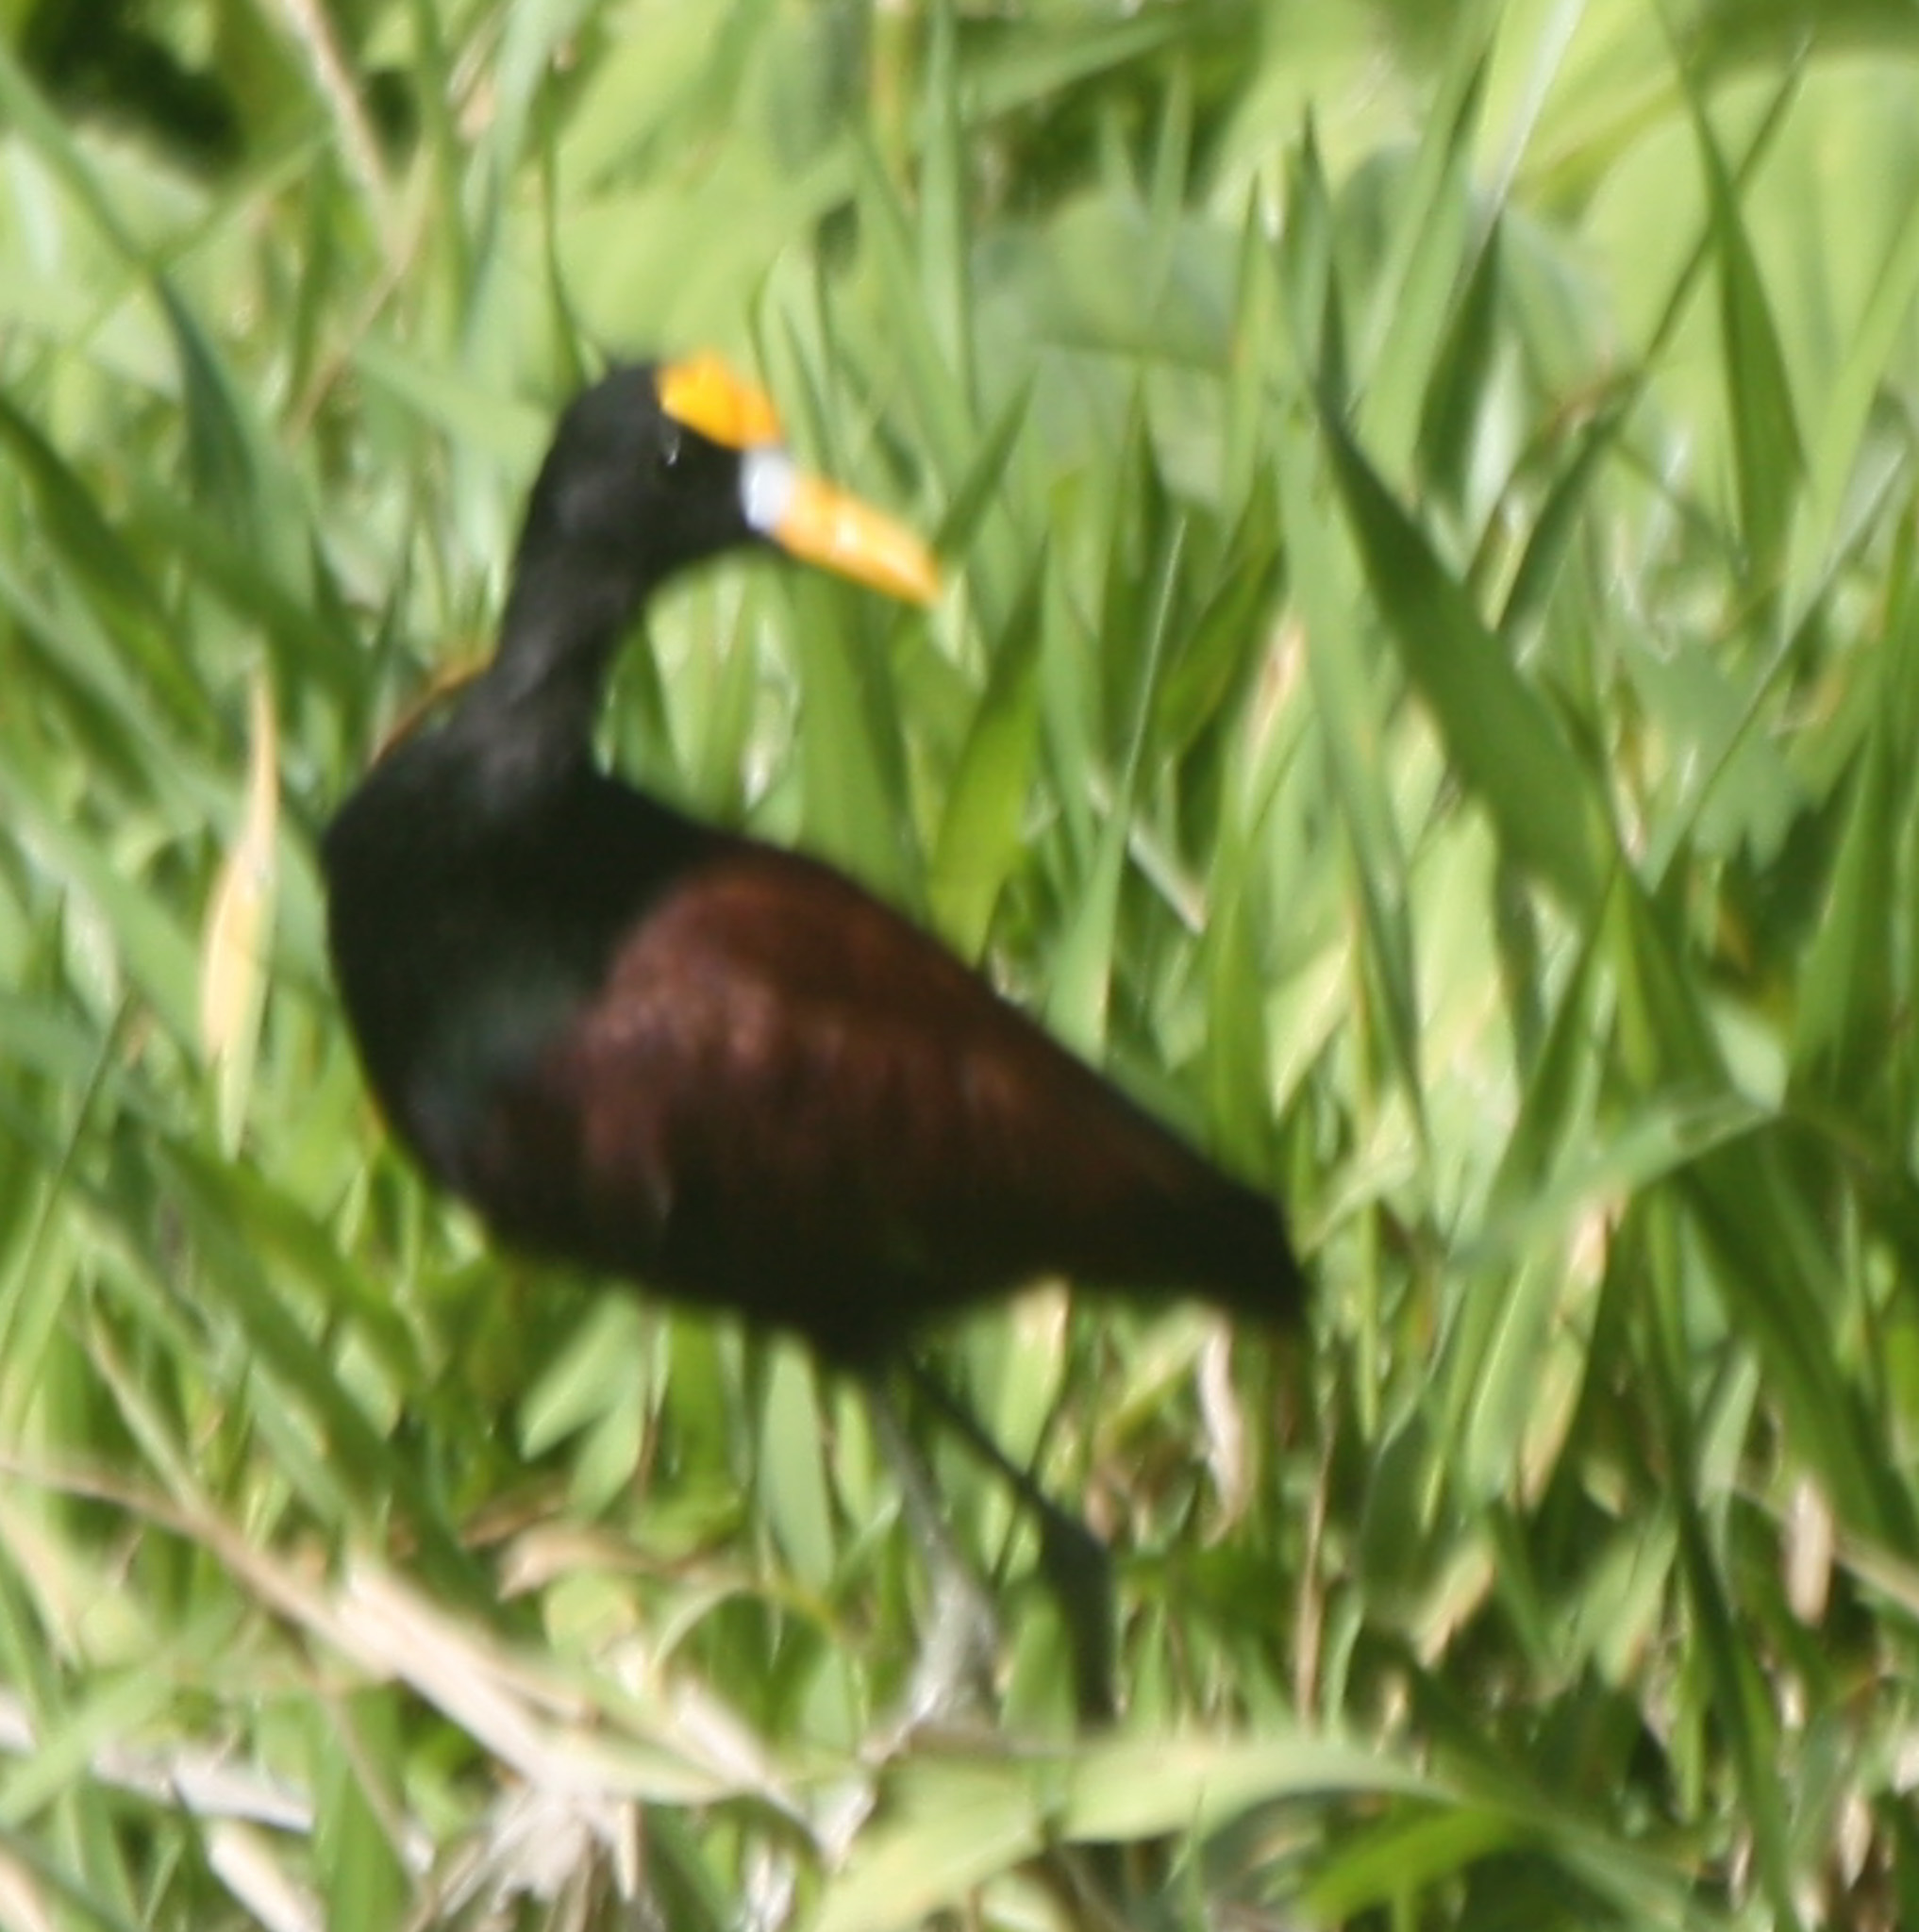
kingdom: Animalia
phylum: Chordata
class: Aves
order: Charadriiformes
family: Jacanidae
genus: Jacana
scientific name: Jacana spinosa
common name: Northern jacana
